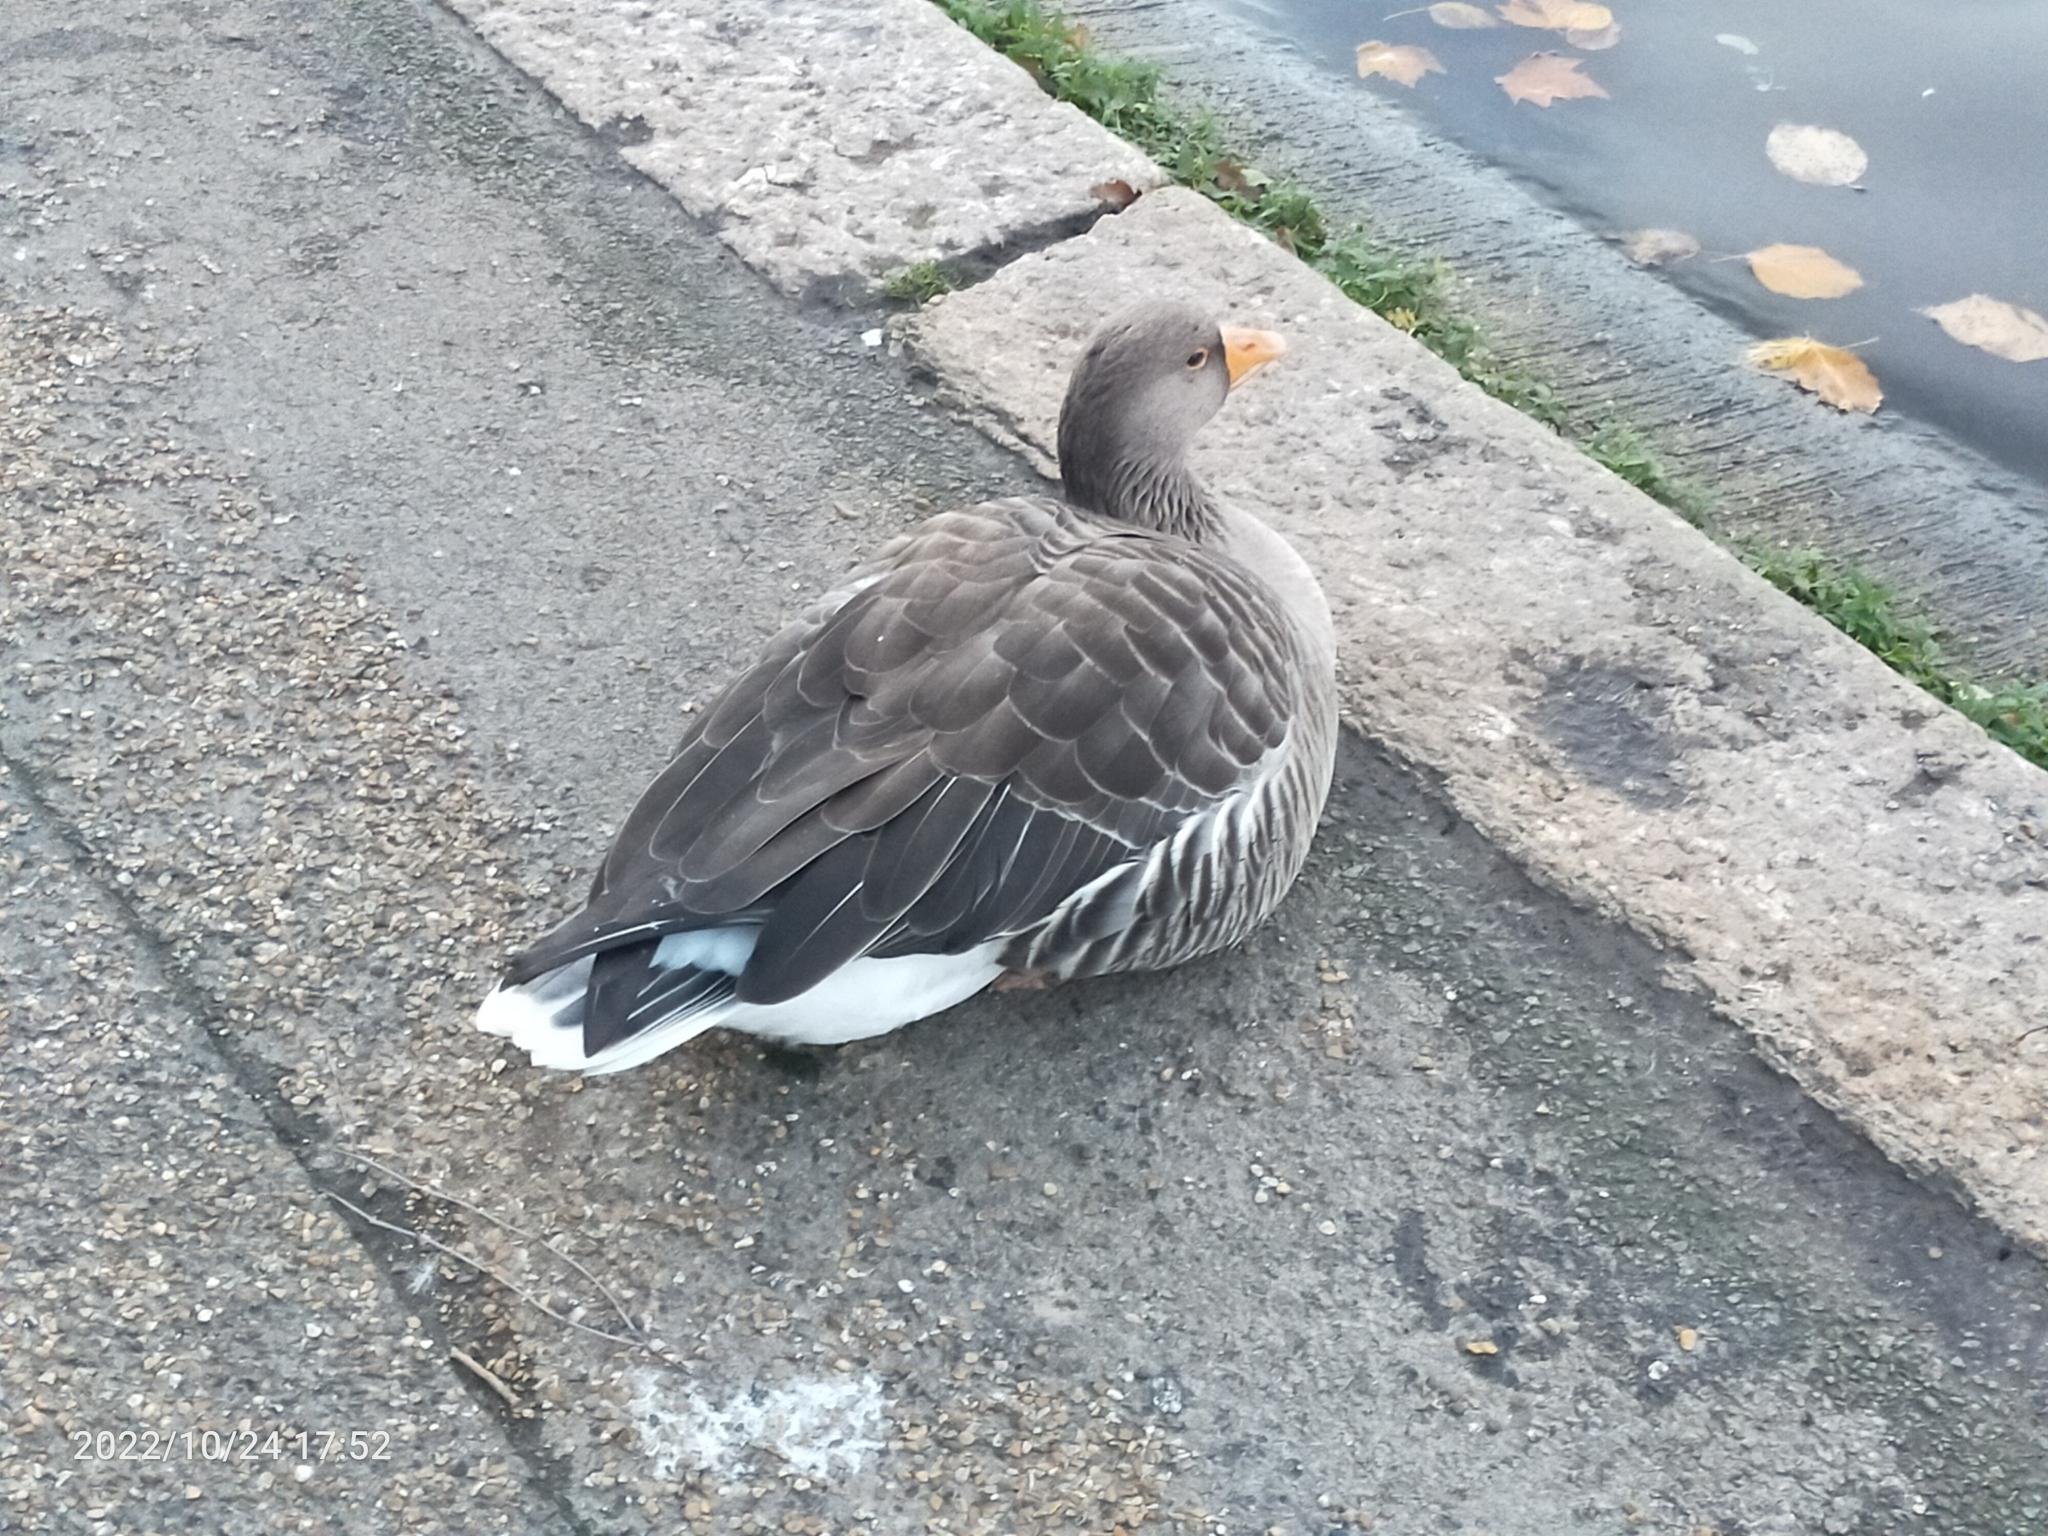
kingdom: Animalia
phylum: Chordata
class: Aves
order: Anseriformes
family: Anatidae
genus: Anser
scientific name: Anser anser
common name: Greylag goose
